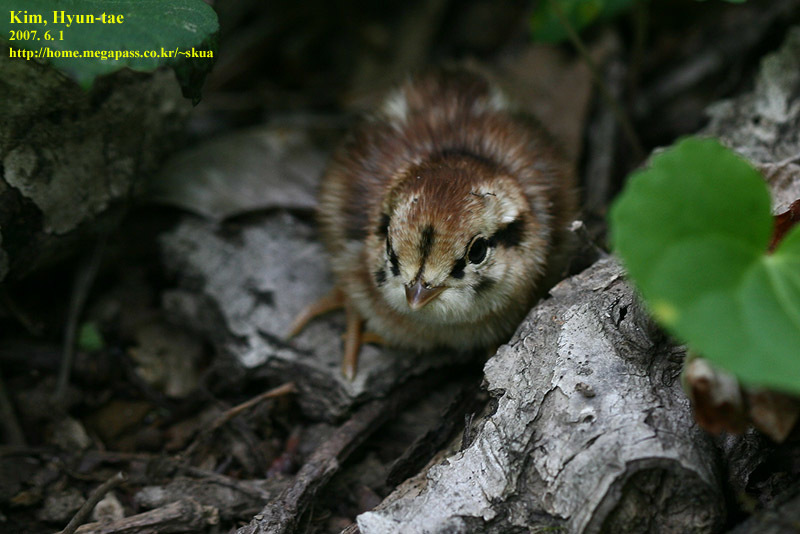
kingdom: Animalia
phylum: Chordata
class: Aves
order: Galliformes
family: Phasianidae
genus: Phasianus
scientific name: Phasianus colchicus
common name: Common pheasant
